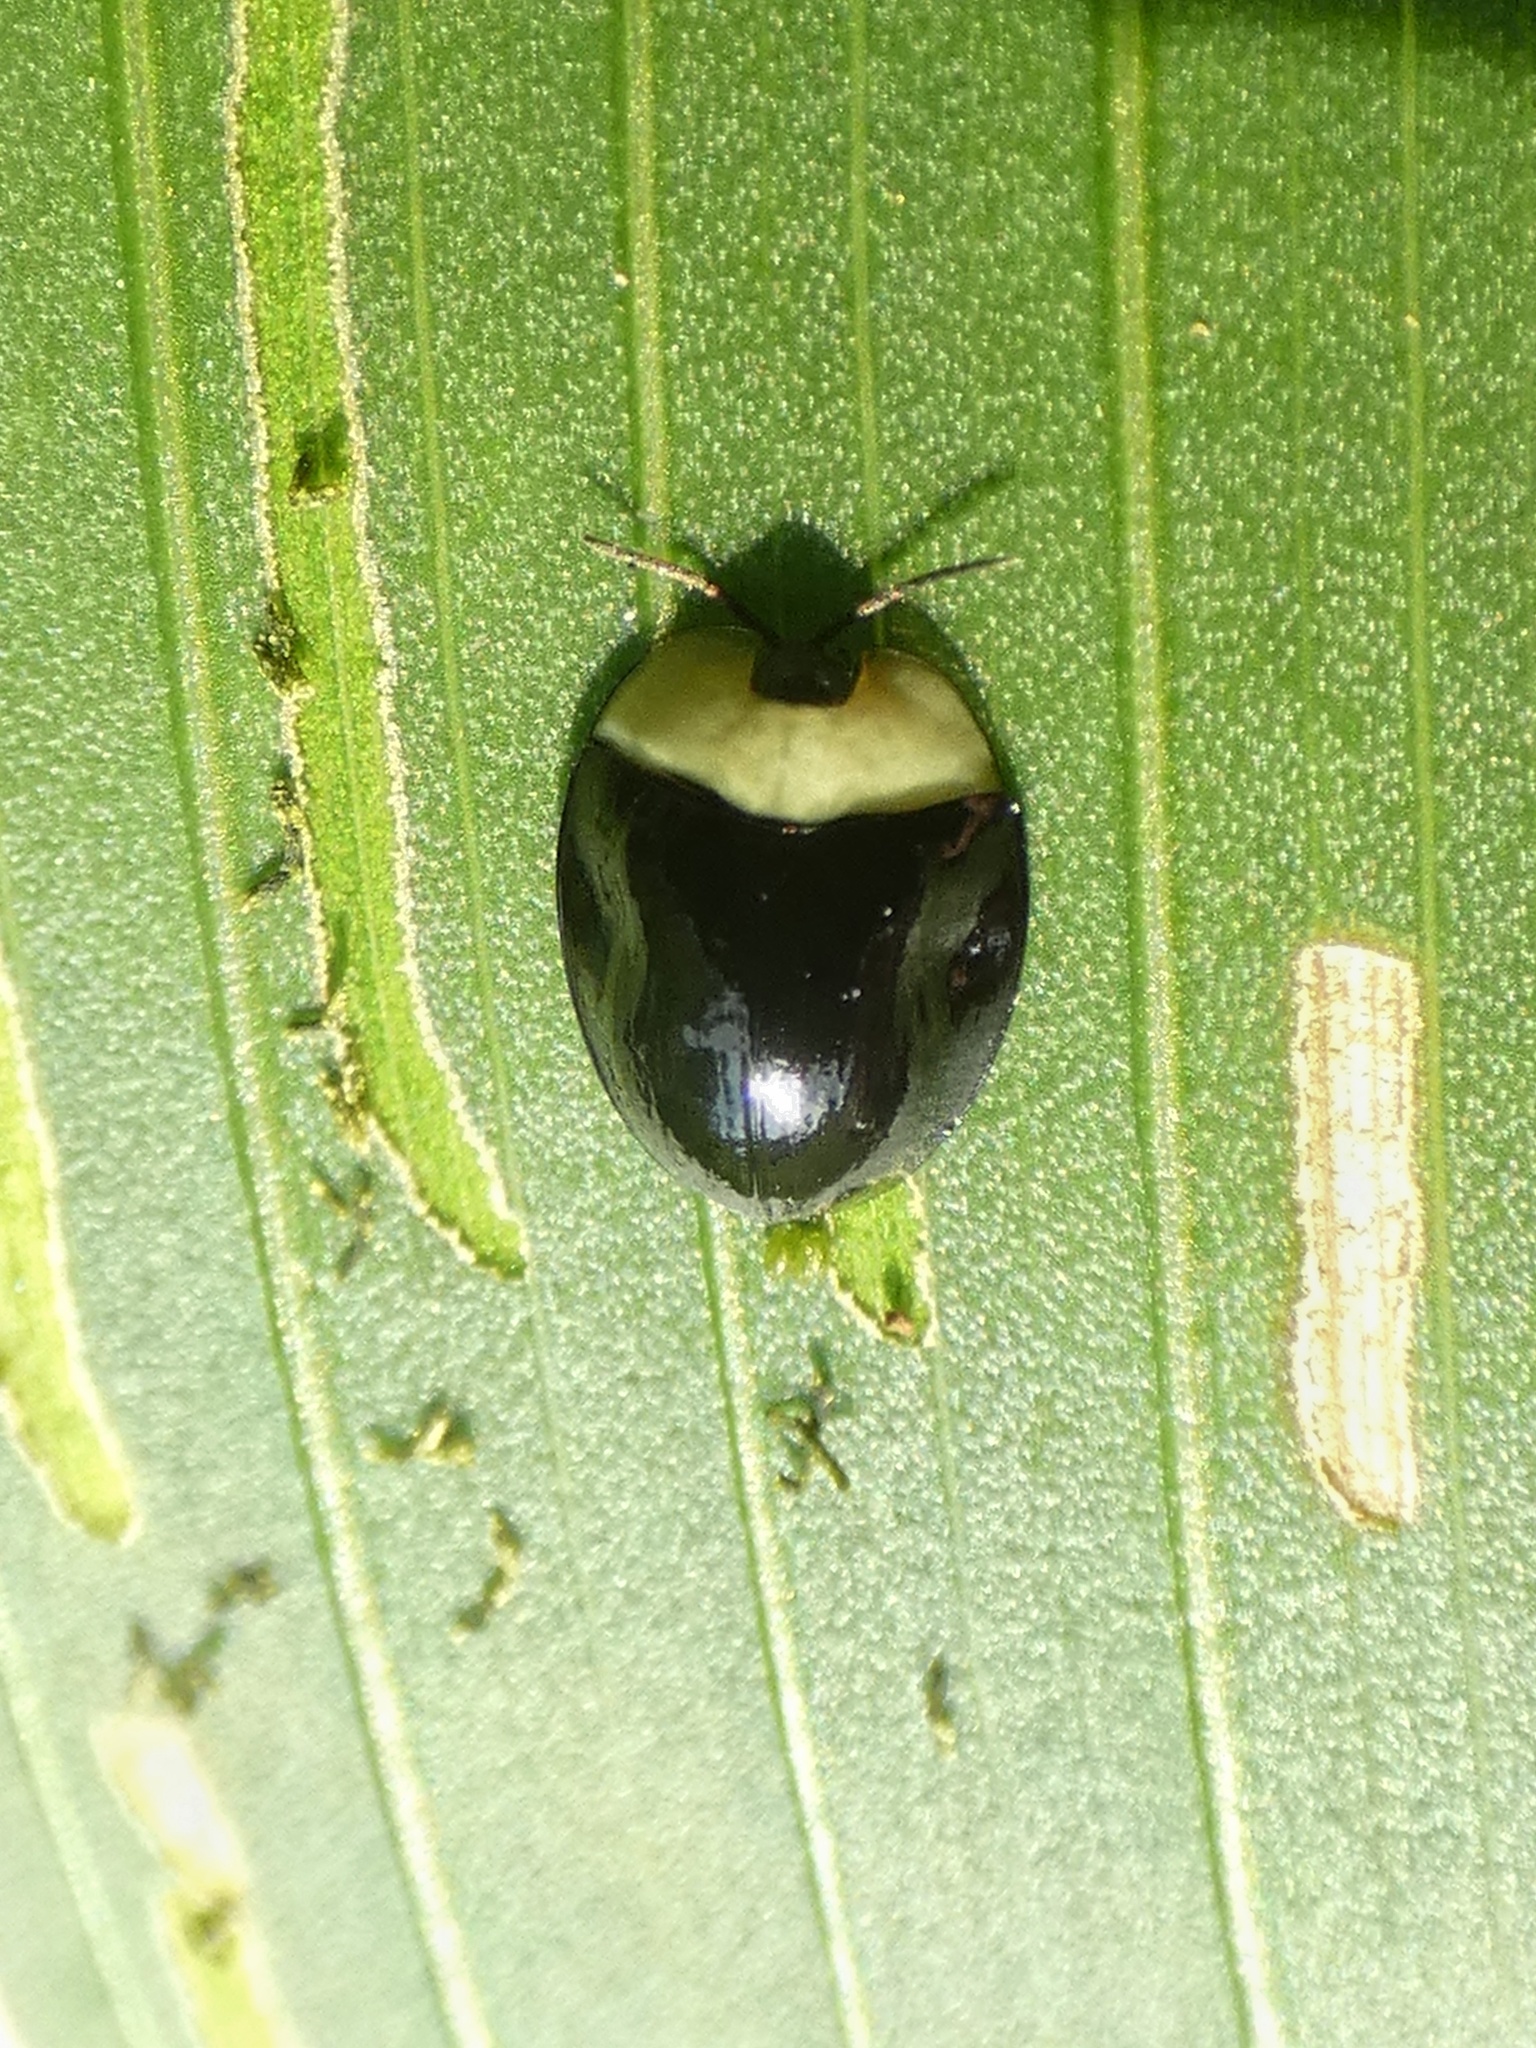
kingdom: Animalia
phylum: Arthropoda
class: Insecta
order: Coleoptera
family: Chrysomelidae
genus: Imatidium
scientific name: Imatidium thoracicum
